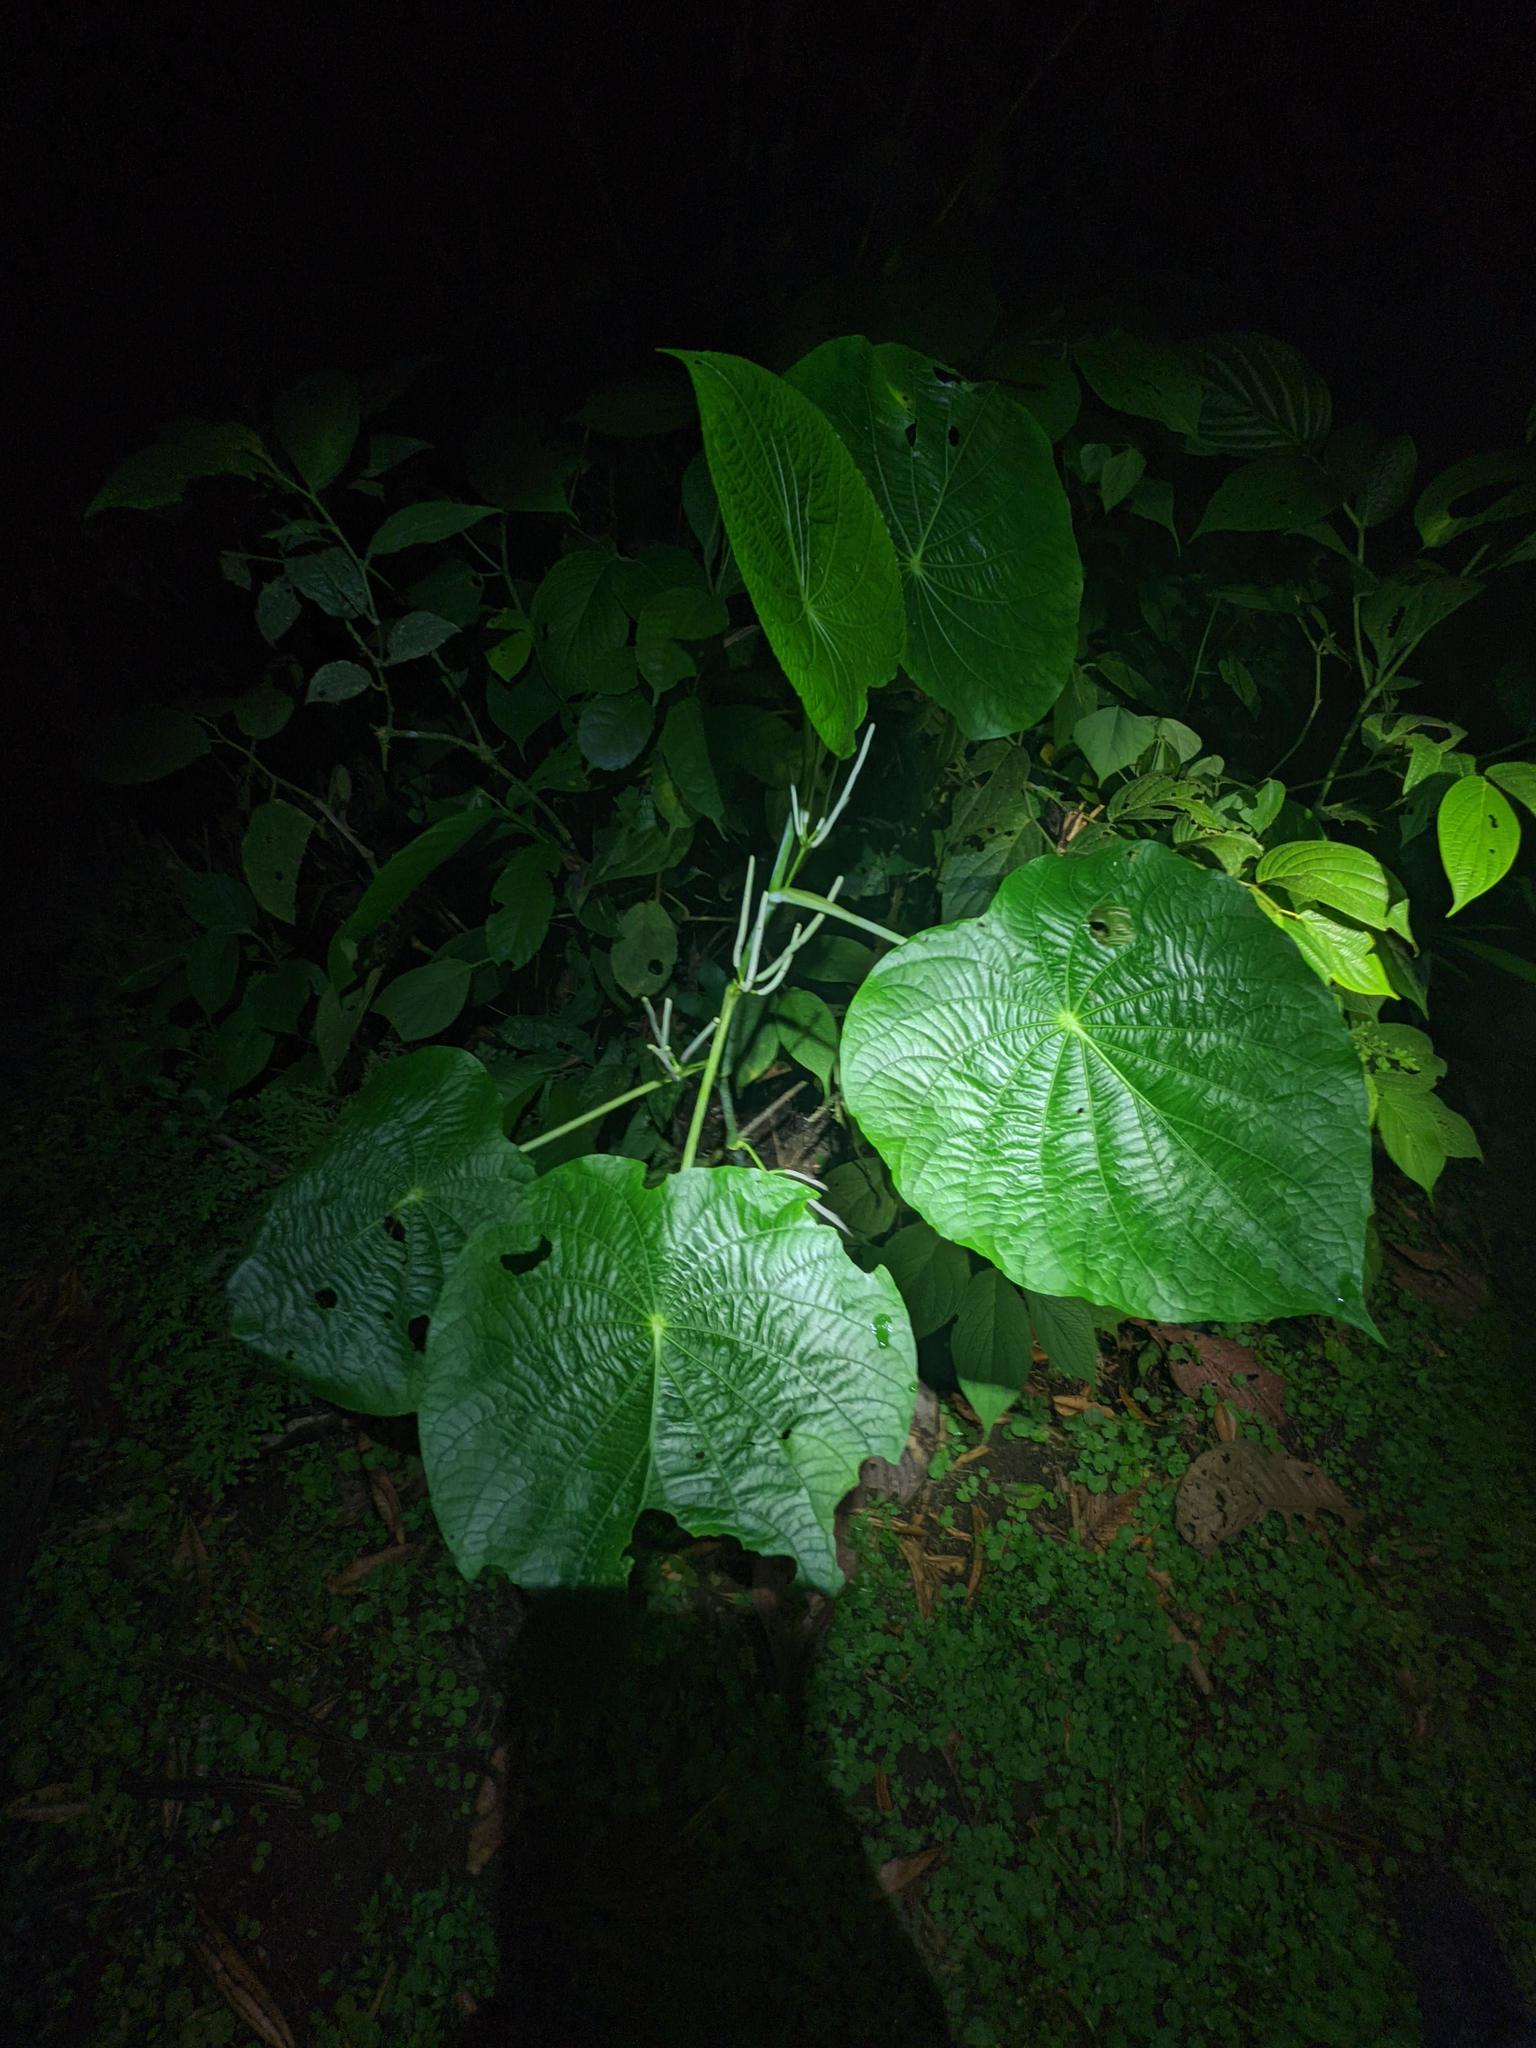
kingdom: Plantae
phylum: Tracheophyta
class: Magnoliopsida
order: Piperales
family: Piperaceae
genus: Piper
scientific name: Piper peltatum
